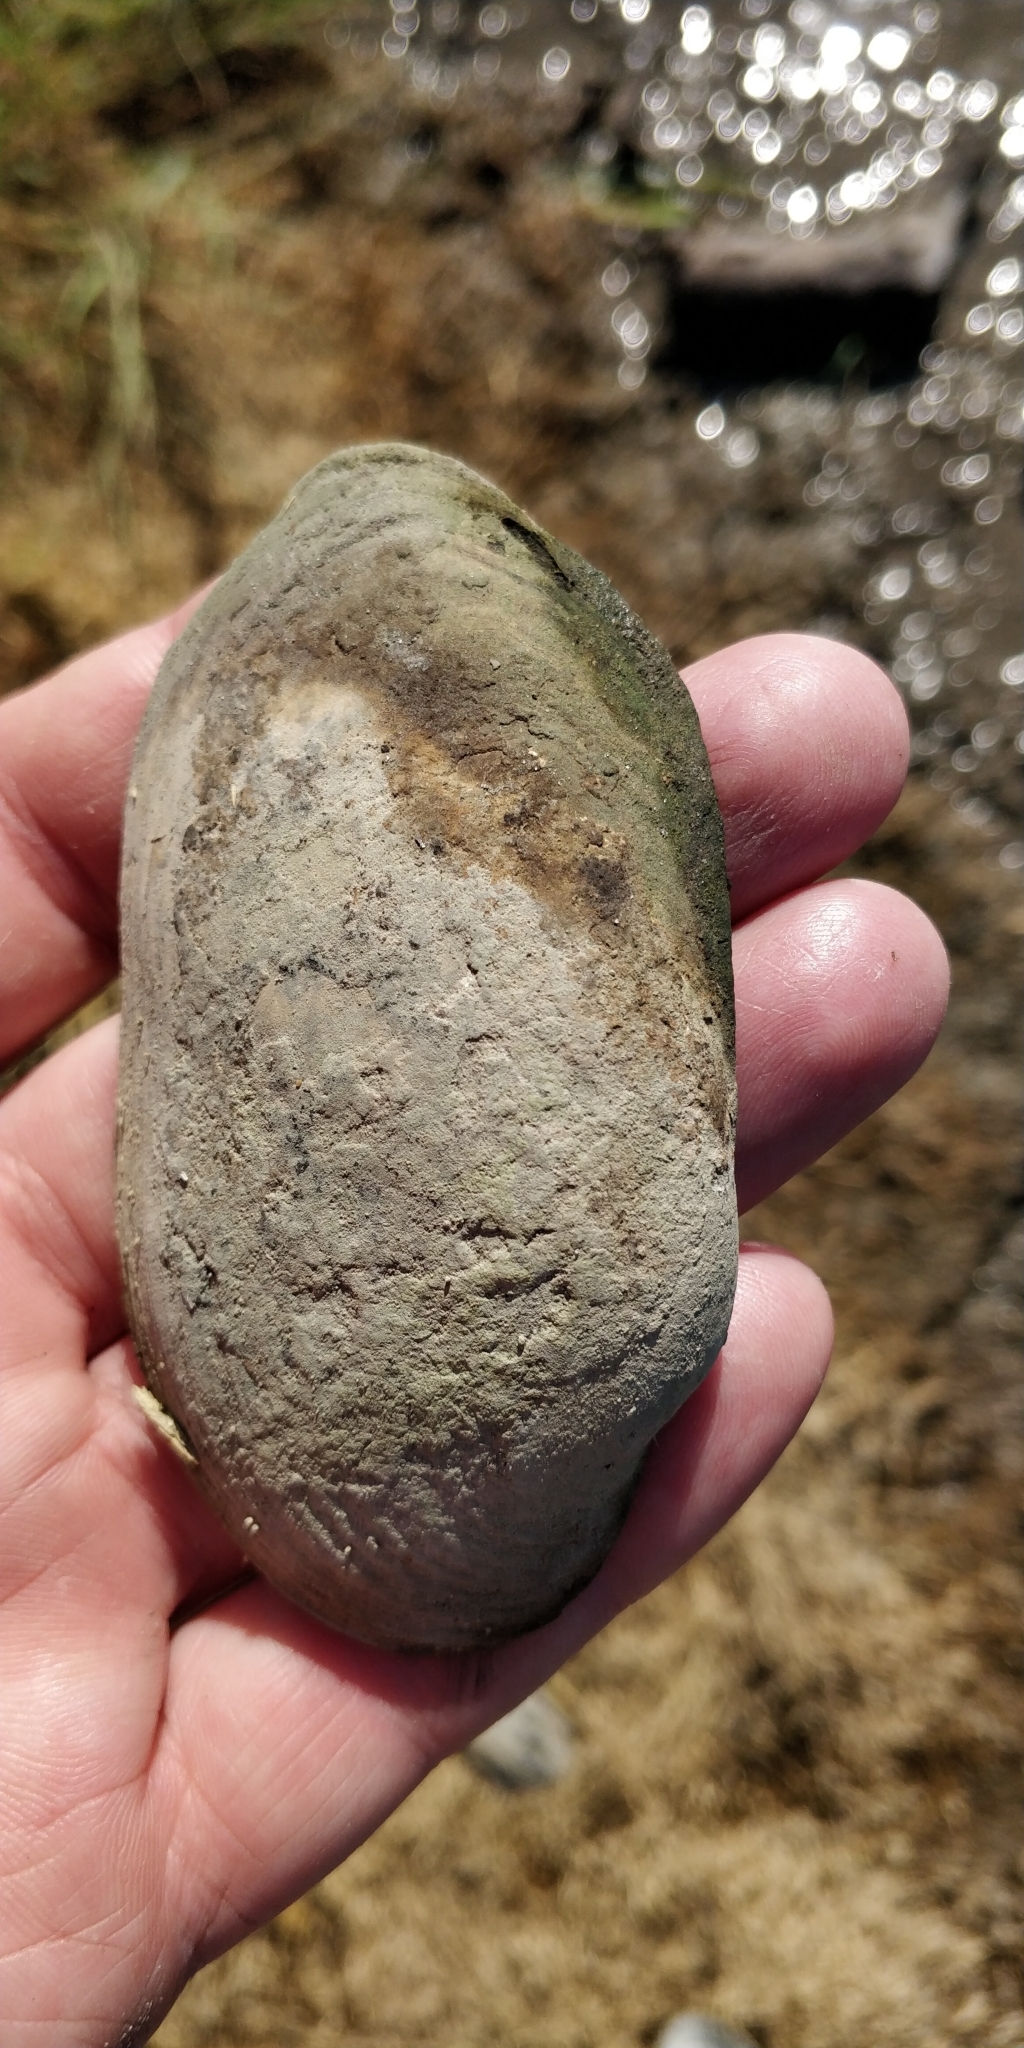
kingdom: Animalia
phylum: Mollusca
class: Bivalvia
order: Unionida
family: Unionidae
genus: Lampsilis
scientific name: Lampsilis siliquoidea
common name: Fatmucket
